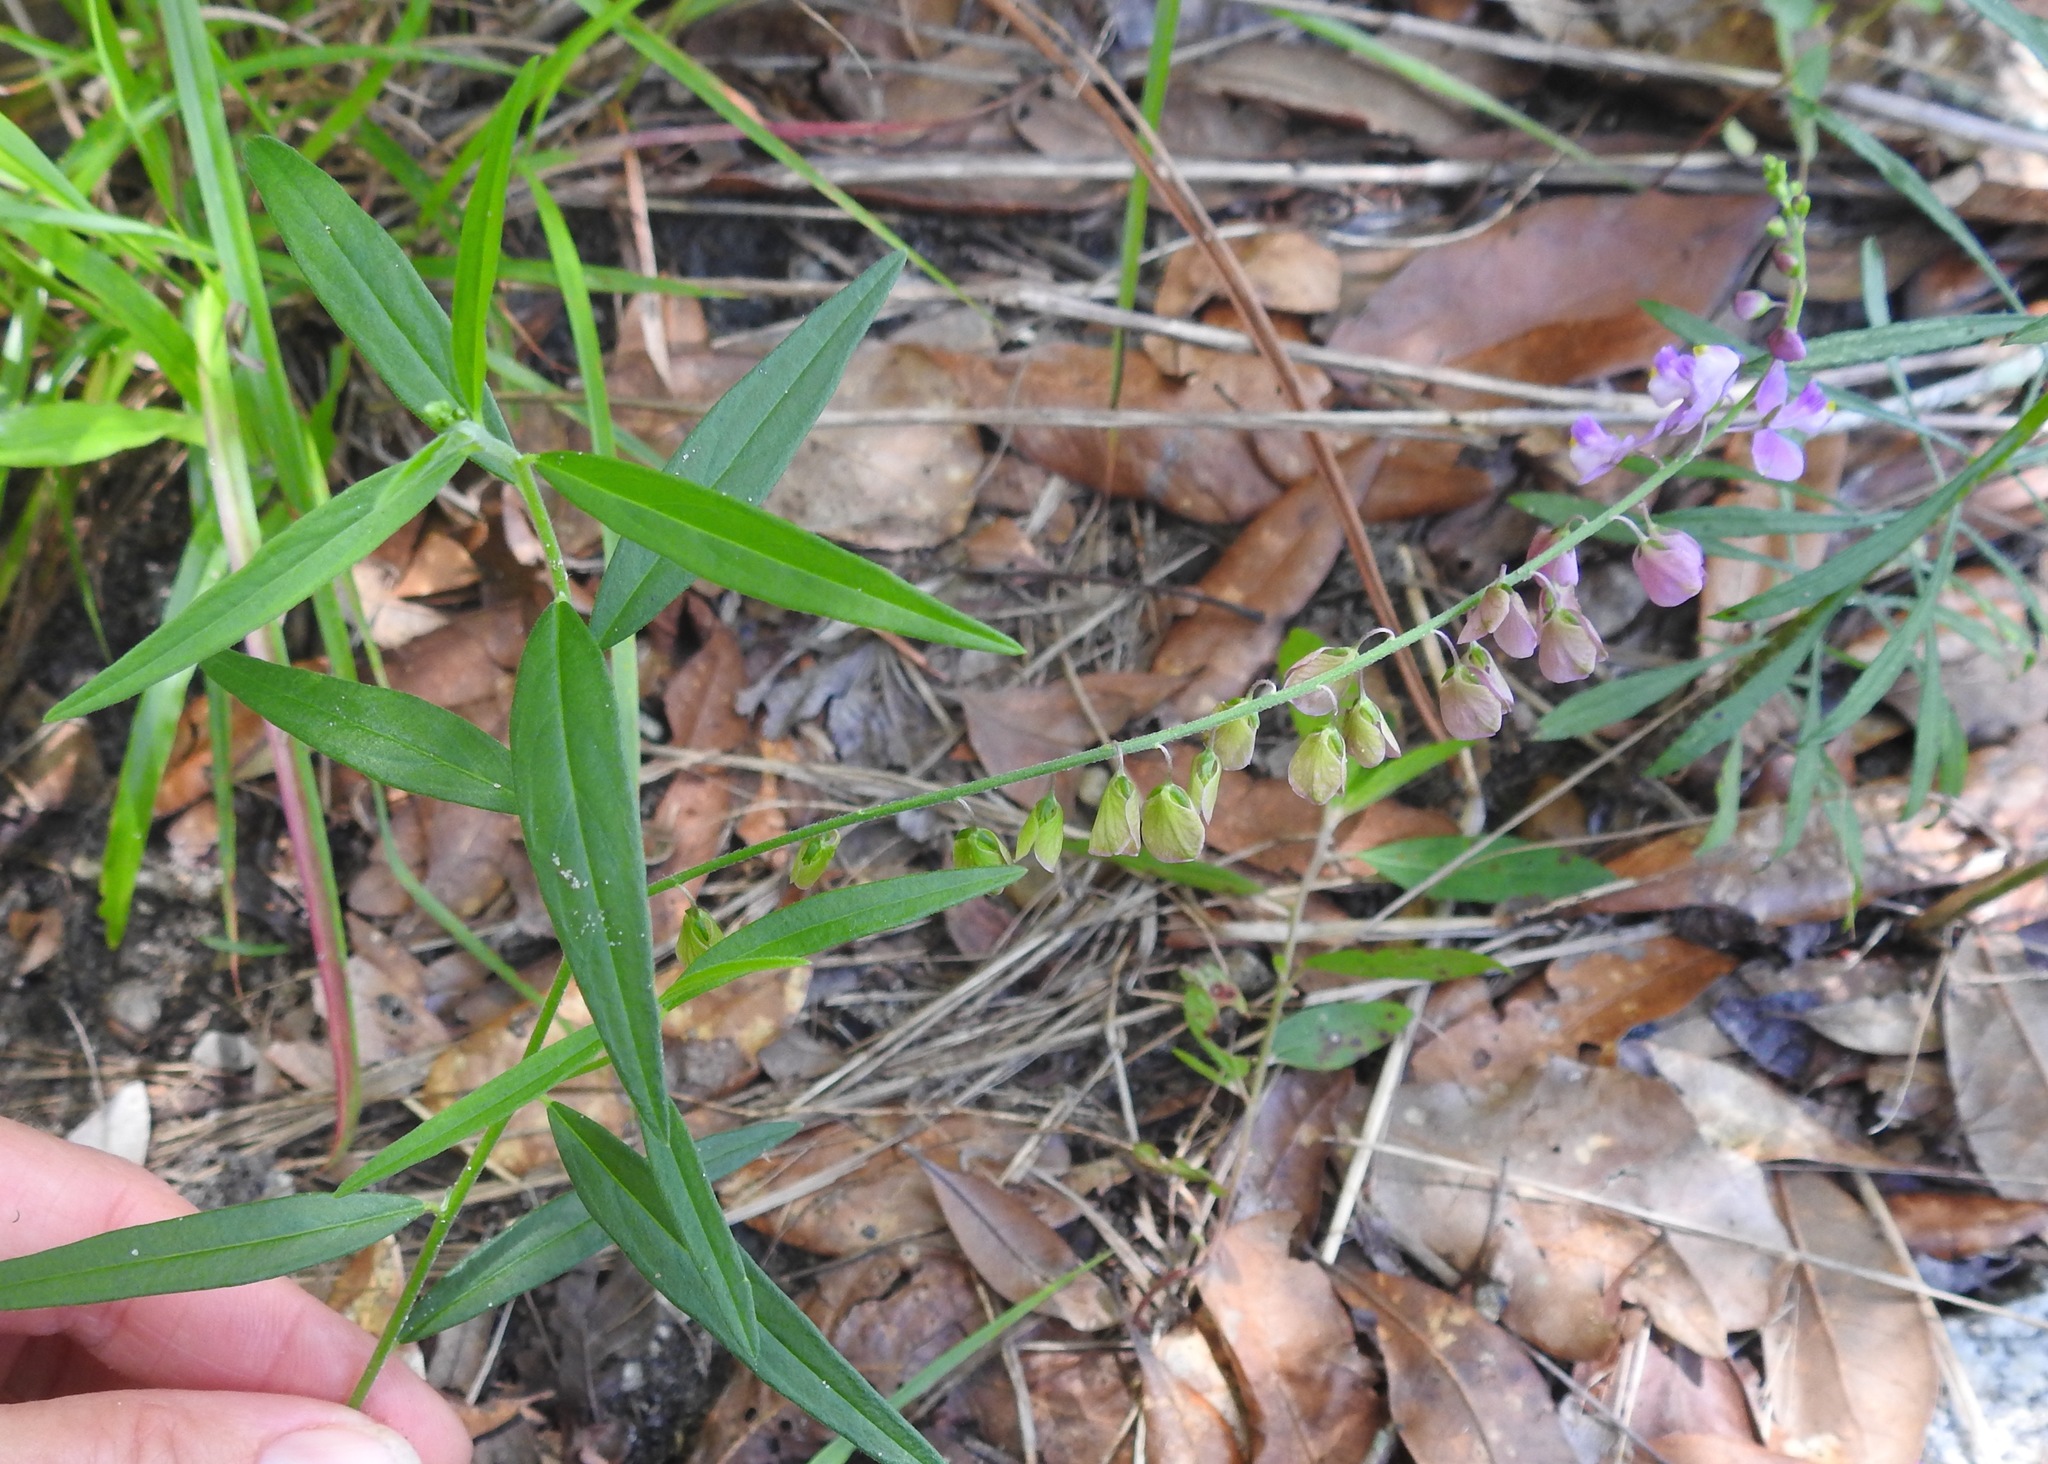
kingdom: Plantae
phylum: Tracheophyta
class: Magnoliopsida
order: Fabales
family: Polygalaceae
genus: Asemeia
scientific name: Asemeia grandiflora
